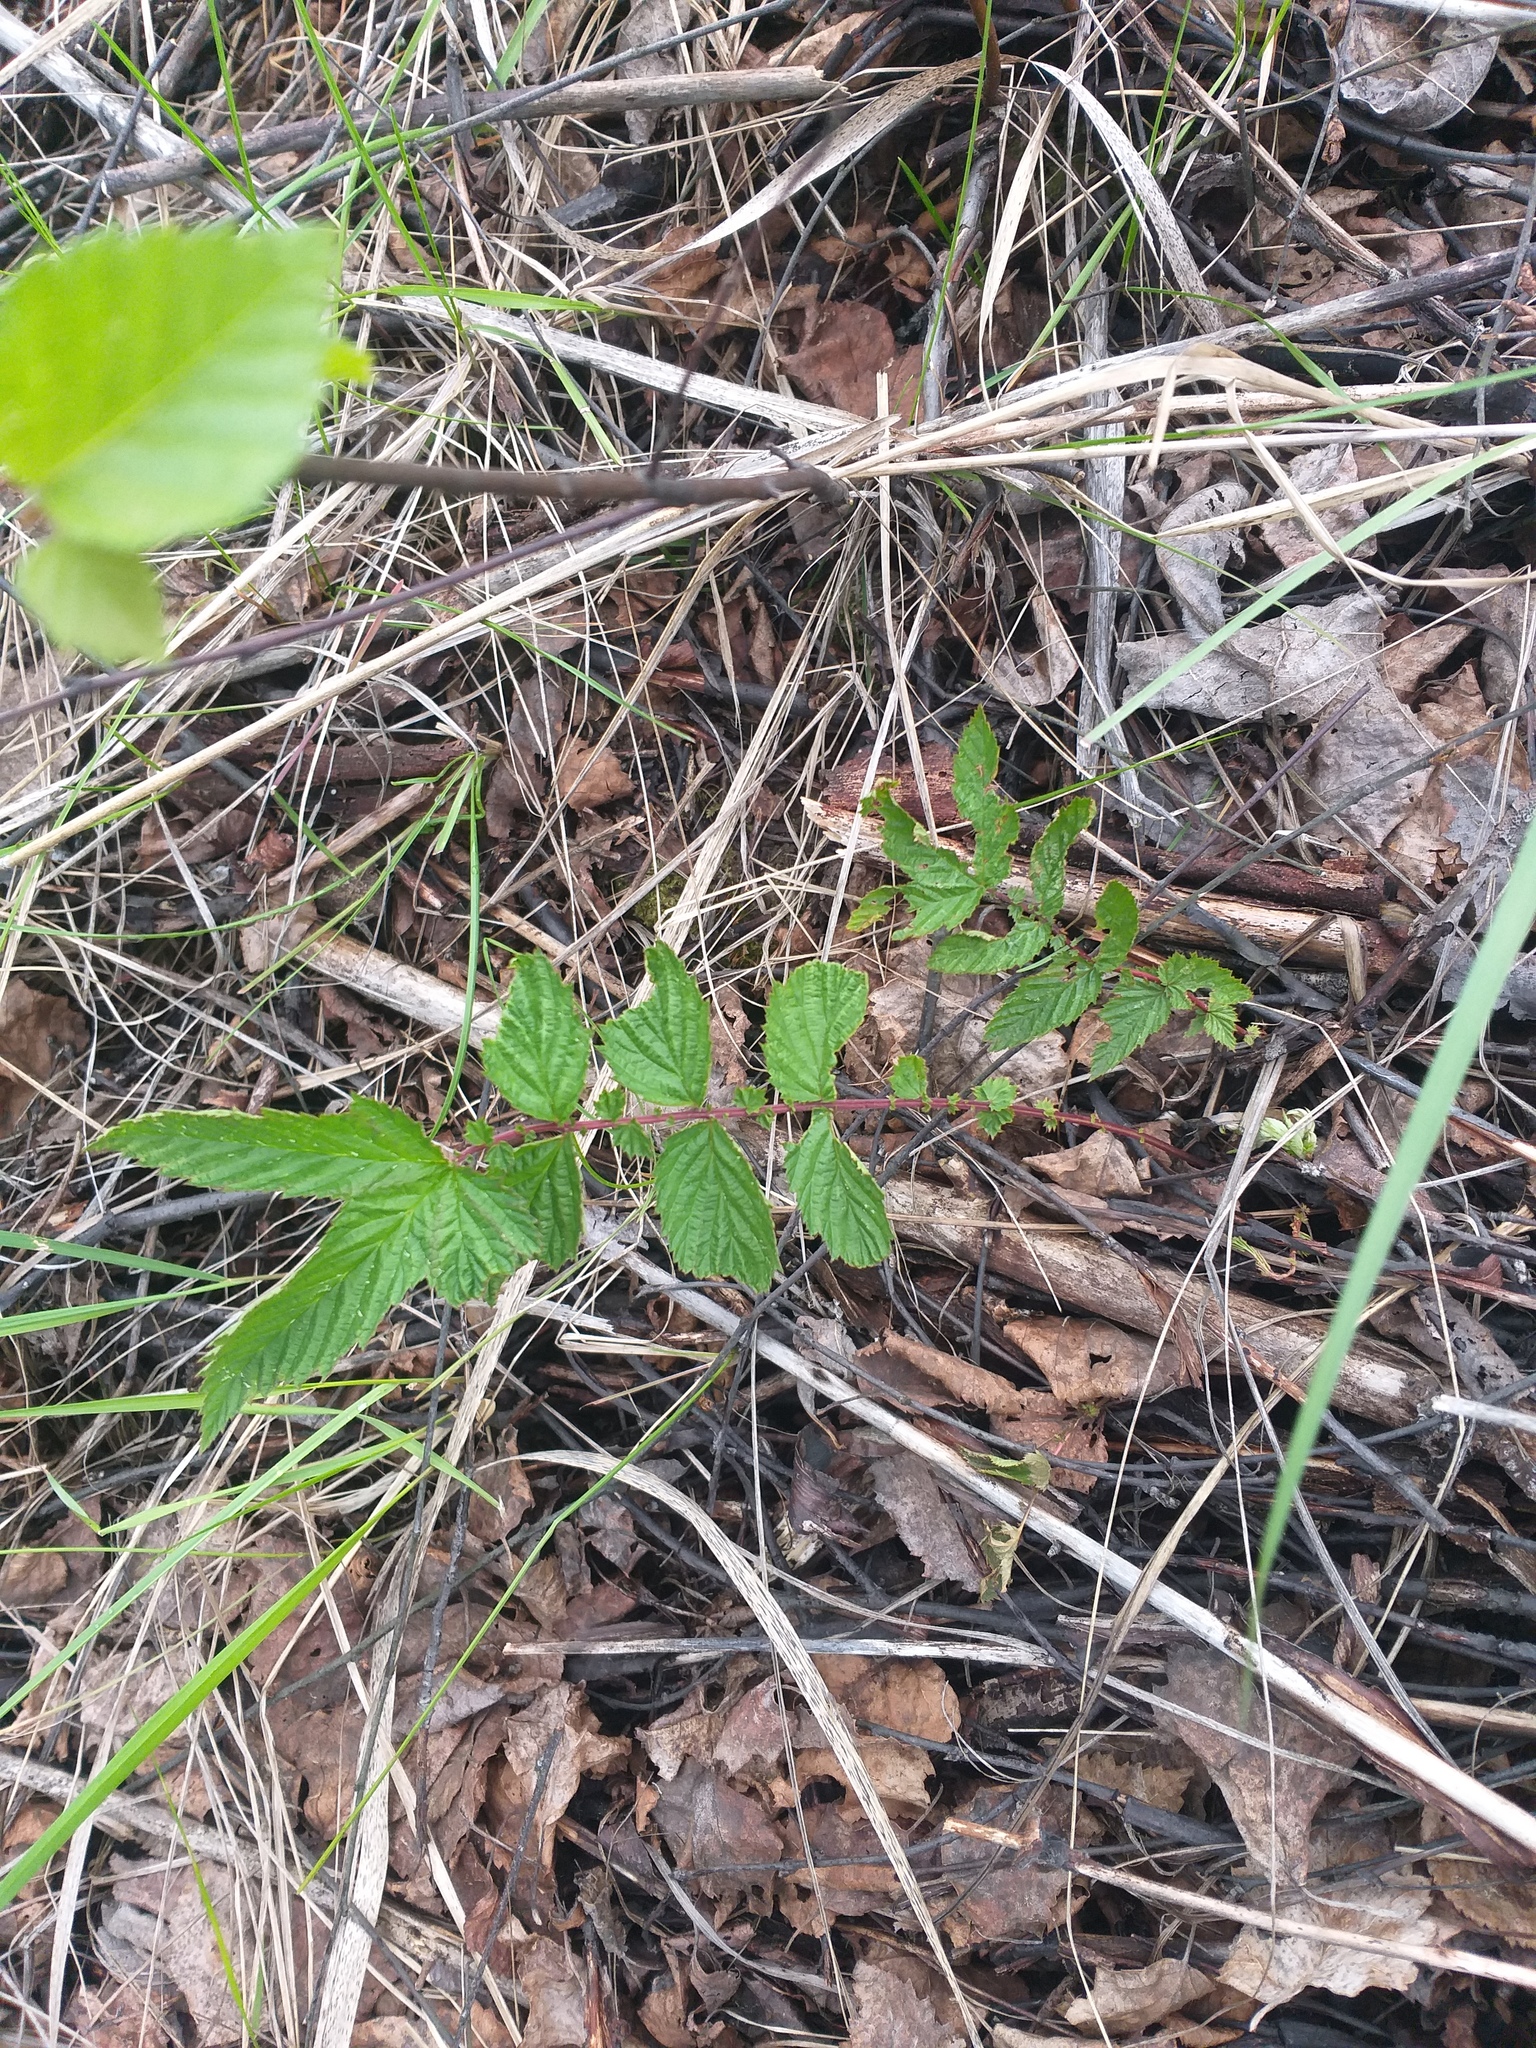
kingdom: Plantae
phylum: Tracheophyta
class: Magnoliopsida
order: Rosales
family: Rosaceae
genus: Filipendula
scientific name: Filipendula ulmaria
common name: Meadowsweet
